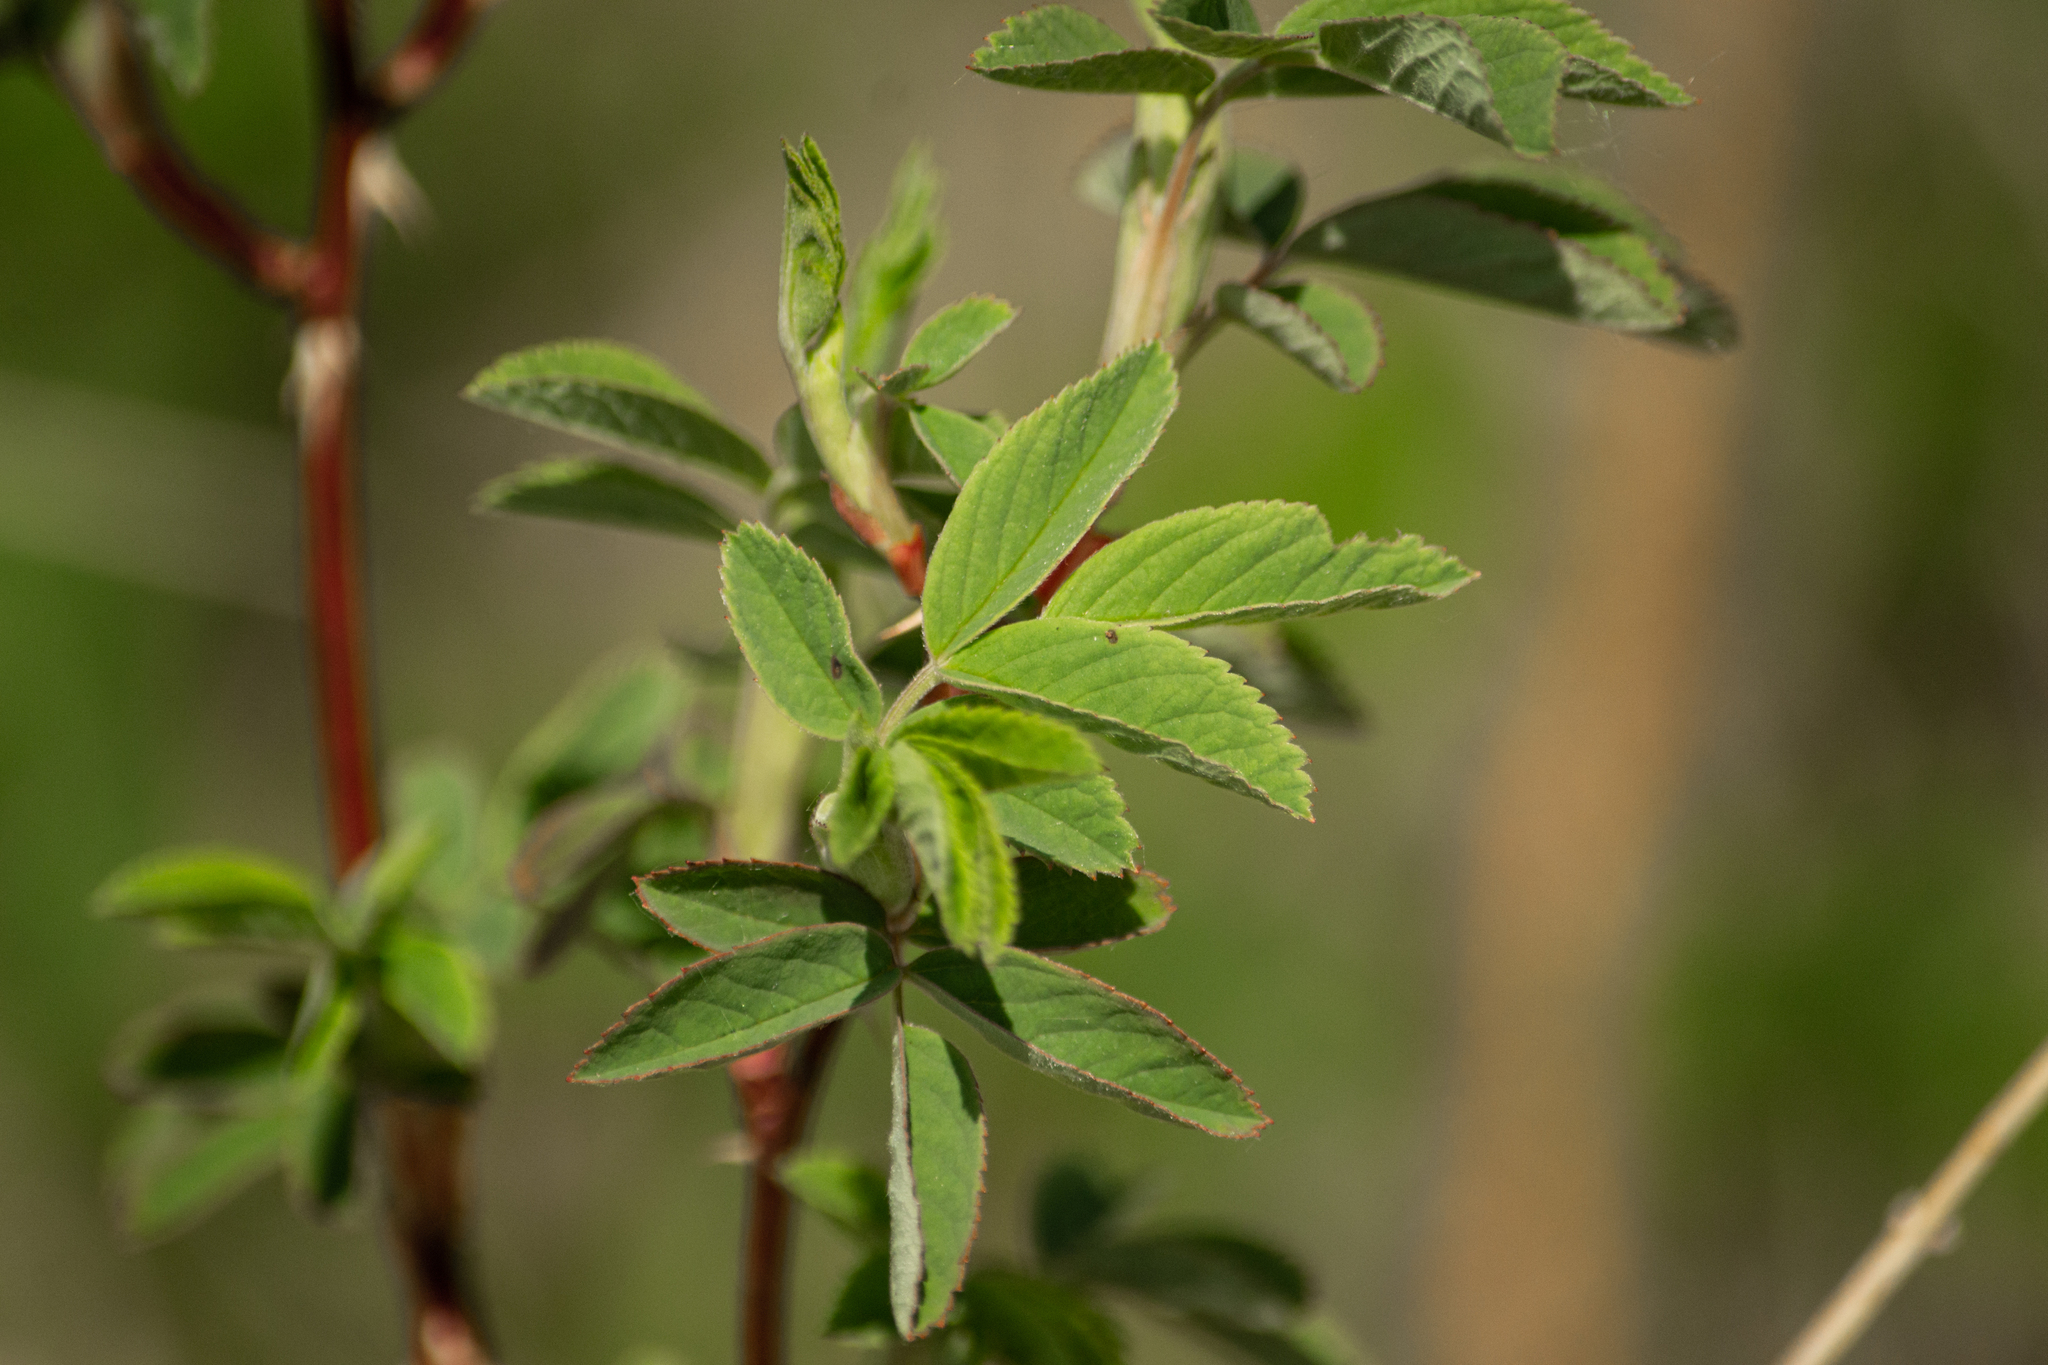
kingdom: Plantae
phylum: Tracheophyta
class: Magnoliopsida
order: Rosales
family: Rosaceae
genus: Rosa
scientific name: Rosa majalis
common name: Cinnamon rose
